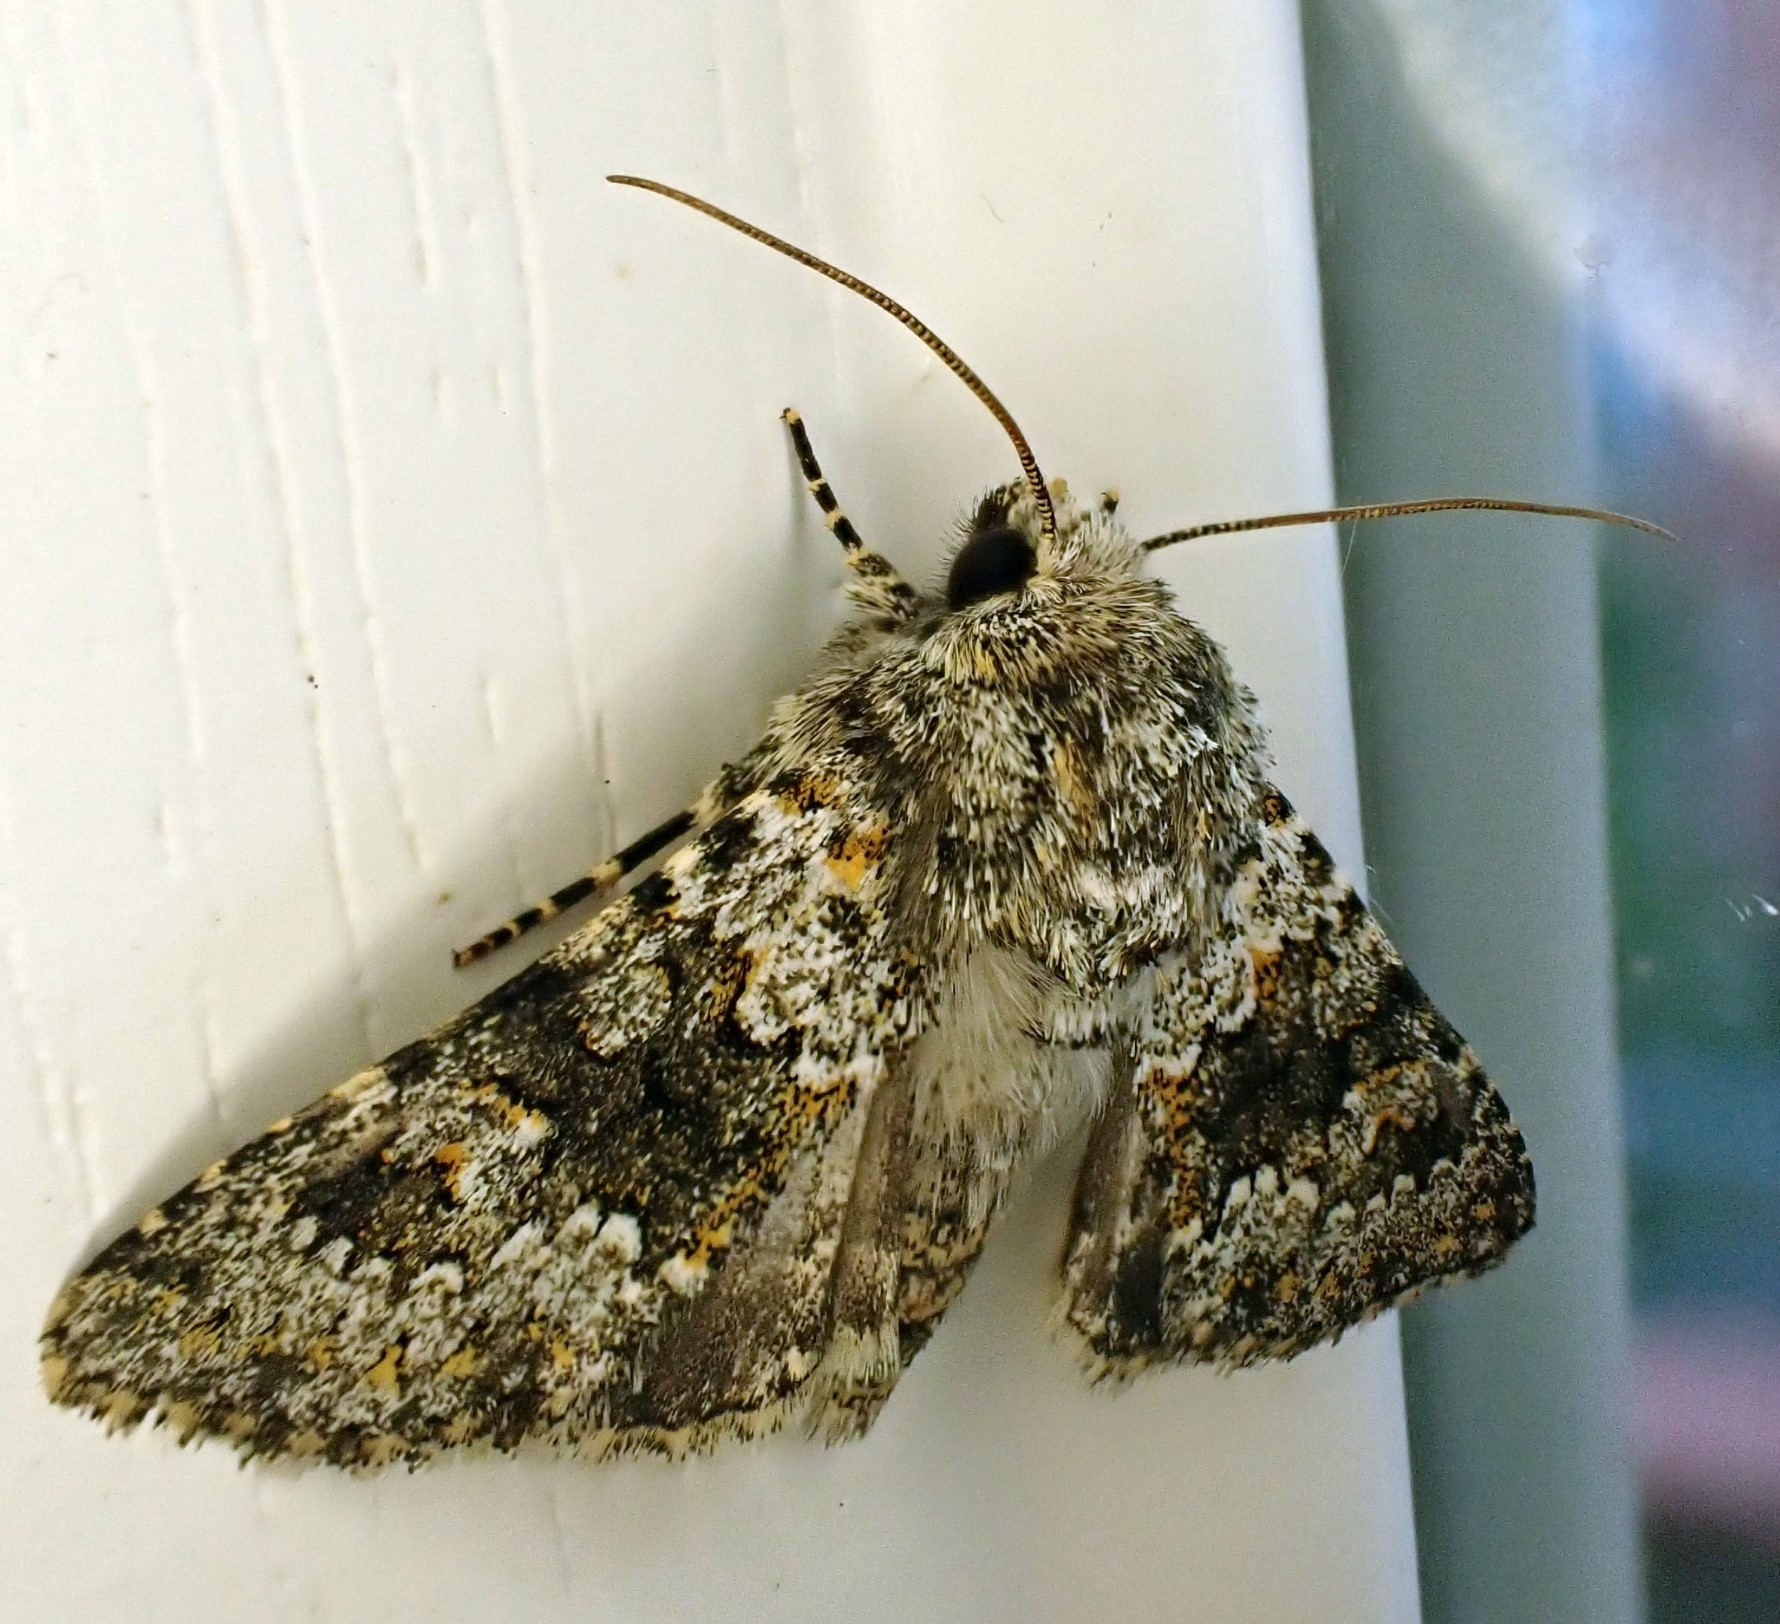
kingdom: Animalia
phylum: Arthropoda
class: Insecta
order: Lepidoptera
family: Noctuidae
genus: Hecatera
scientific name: Hecatera dysodea
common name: Small ranunculus
